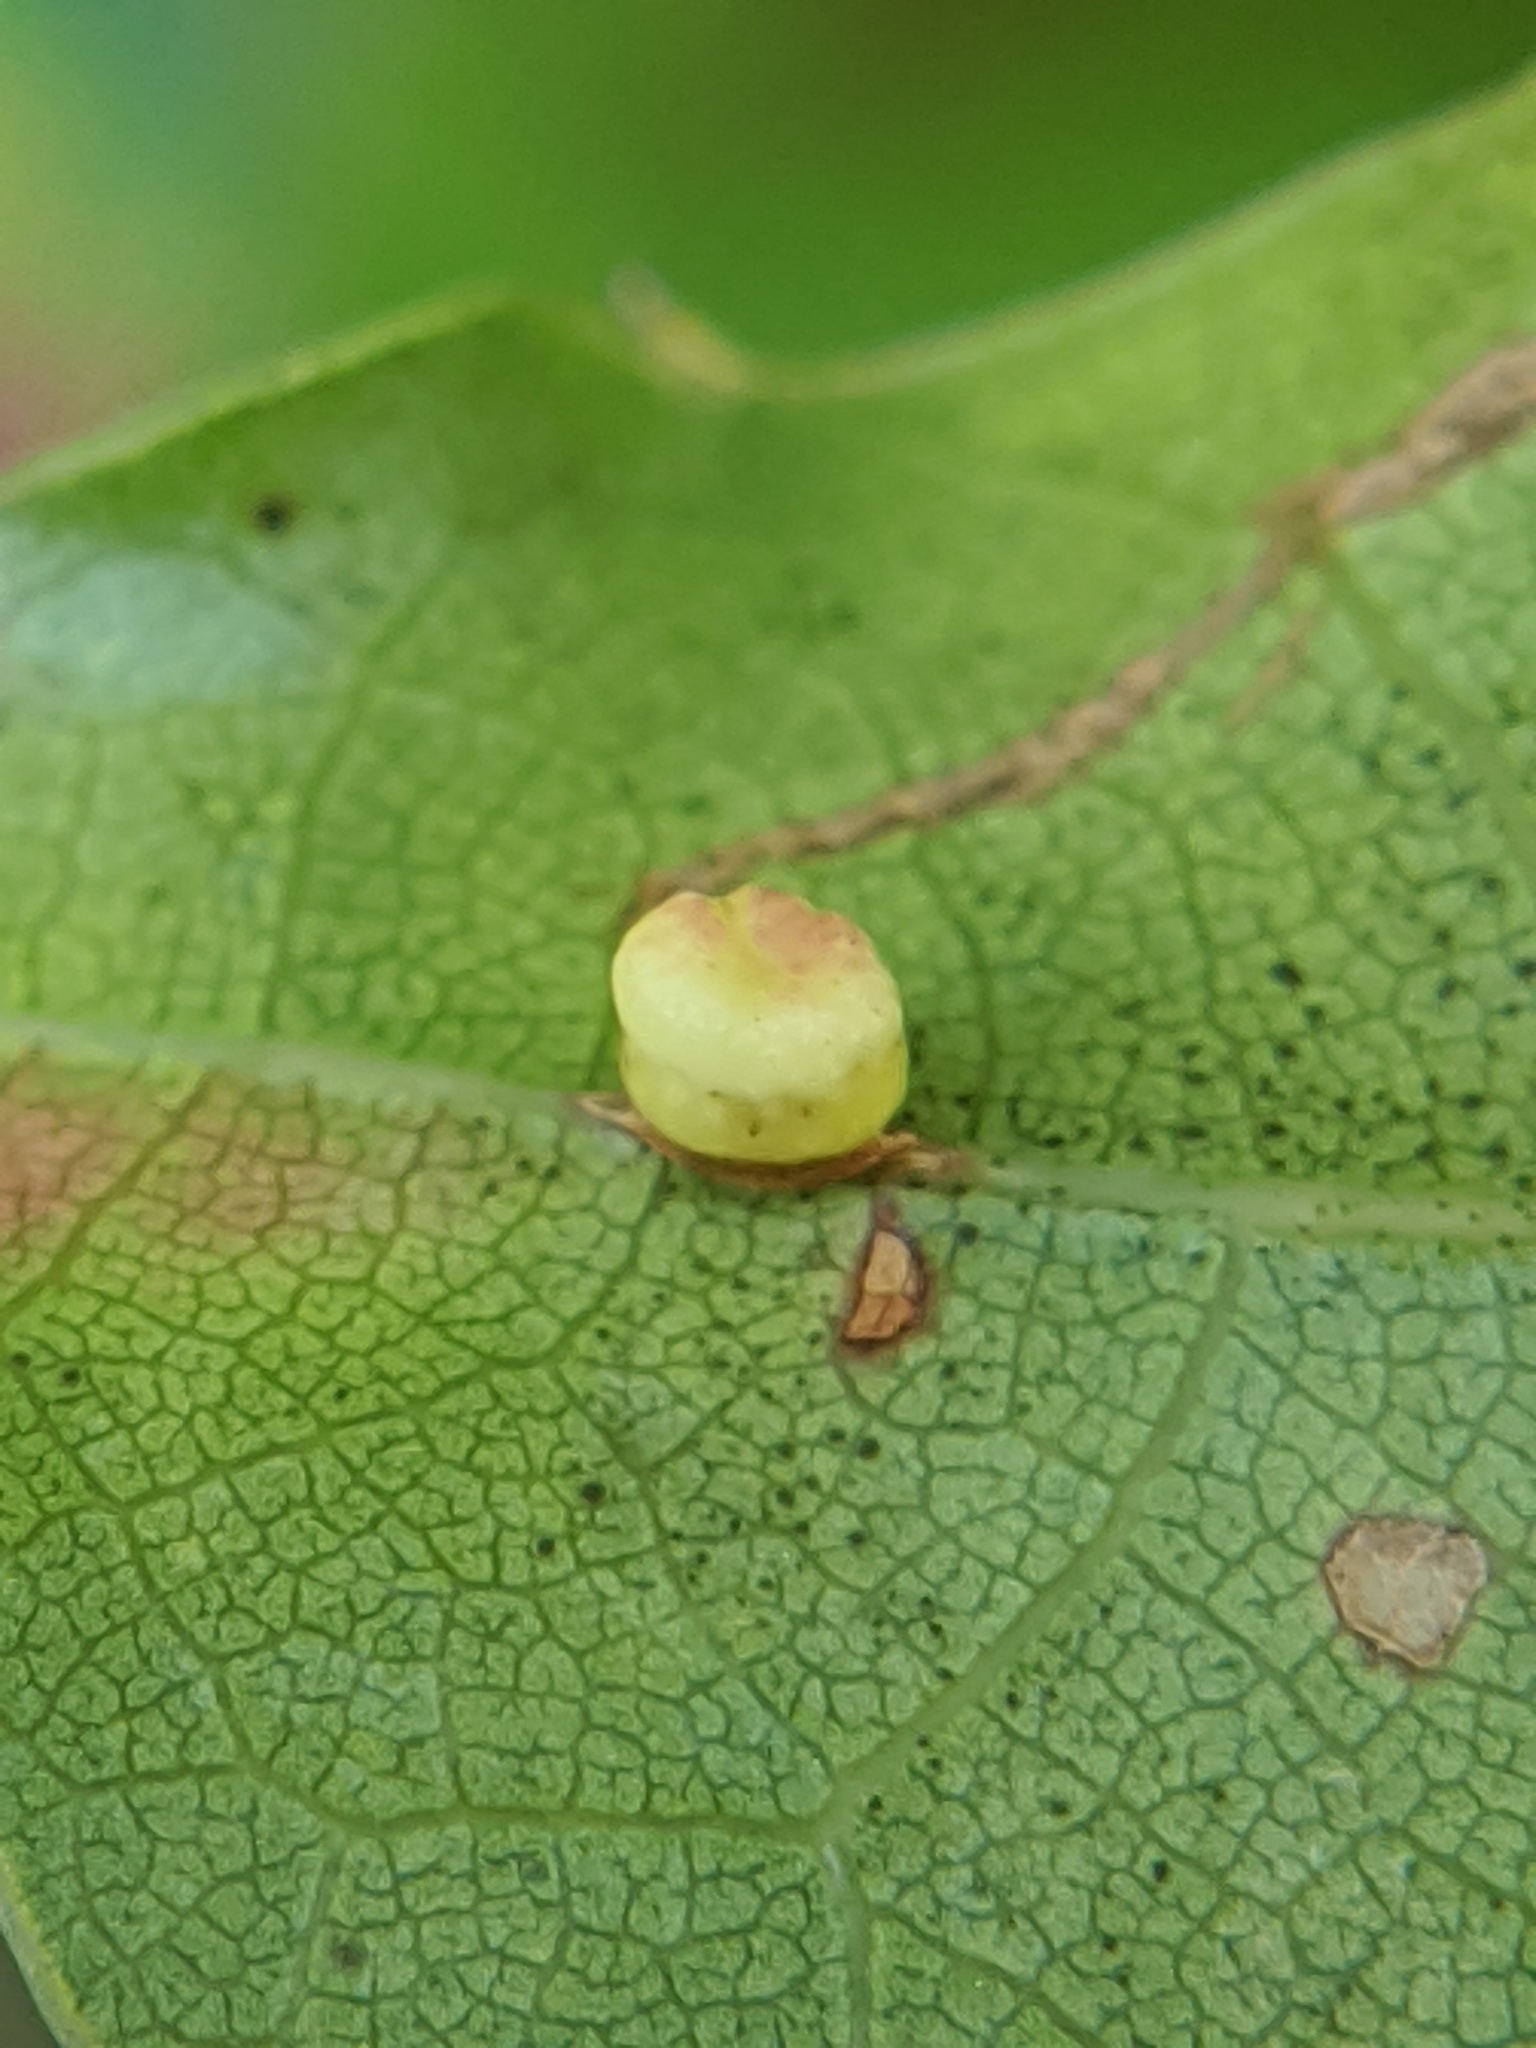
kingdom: Animalia
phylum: Arthropoda
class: Insecta
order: Hymenoptera
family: Cynipidae
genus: Kokkocynips
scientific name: Kokkocynips rileyi
